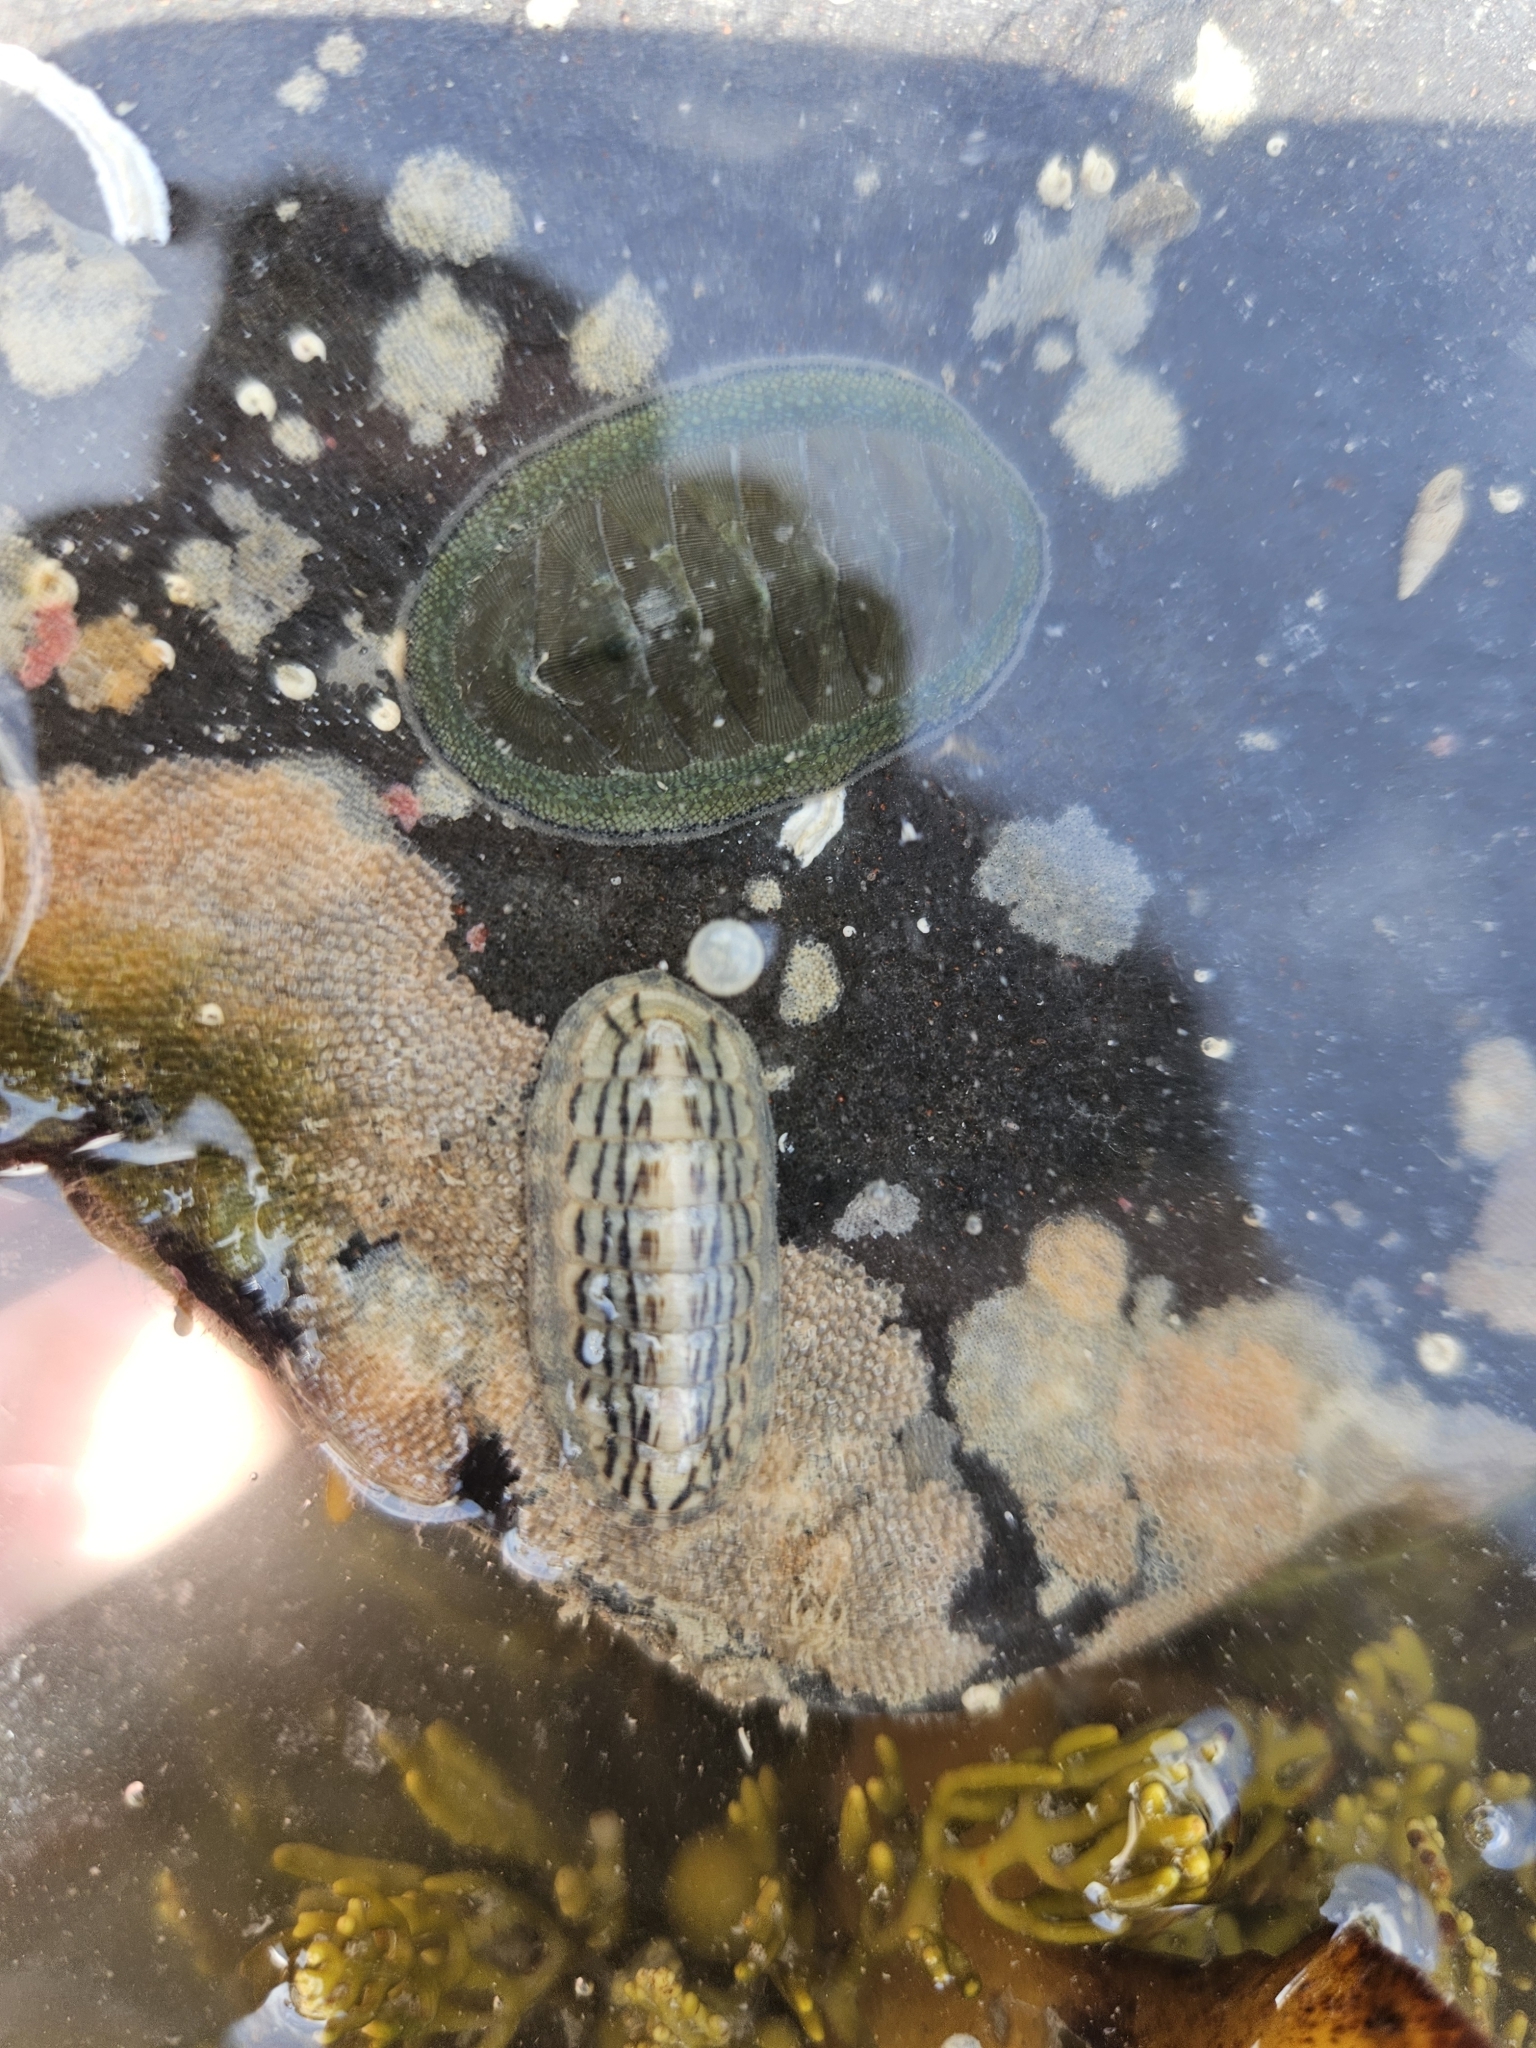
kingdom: Animalia
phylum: Mollusca
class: Polyplacophora
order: Chitonida
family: Ischnochitonidae
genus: Ischnochiton
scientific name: Ischnochiton maorianus
